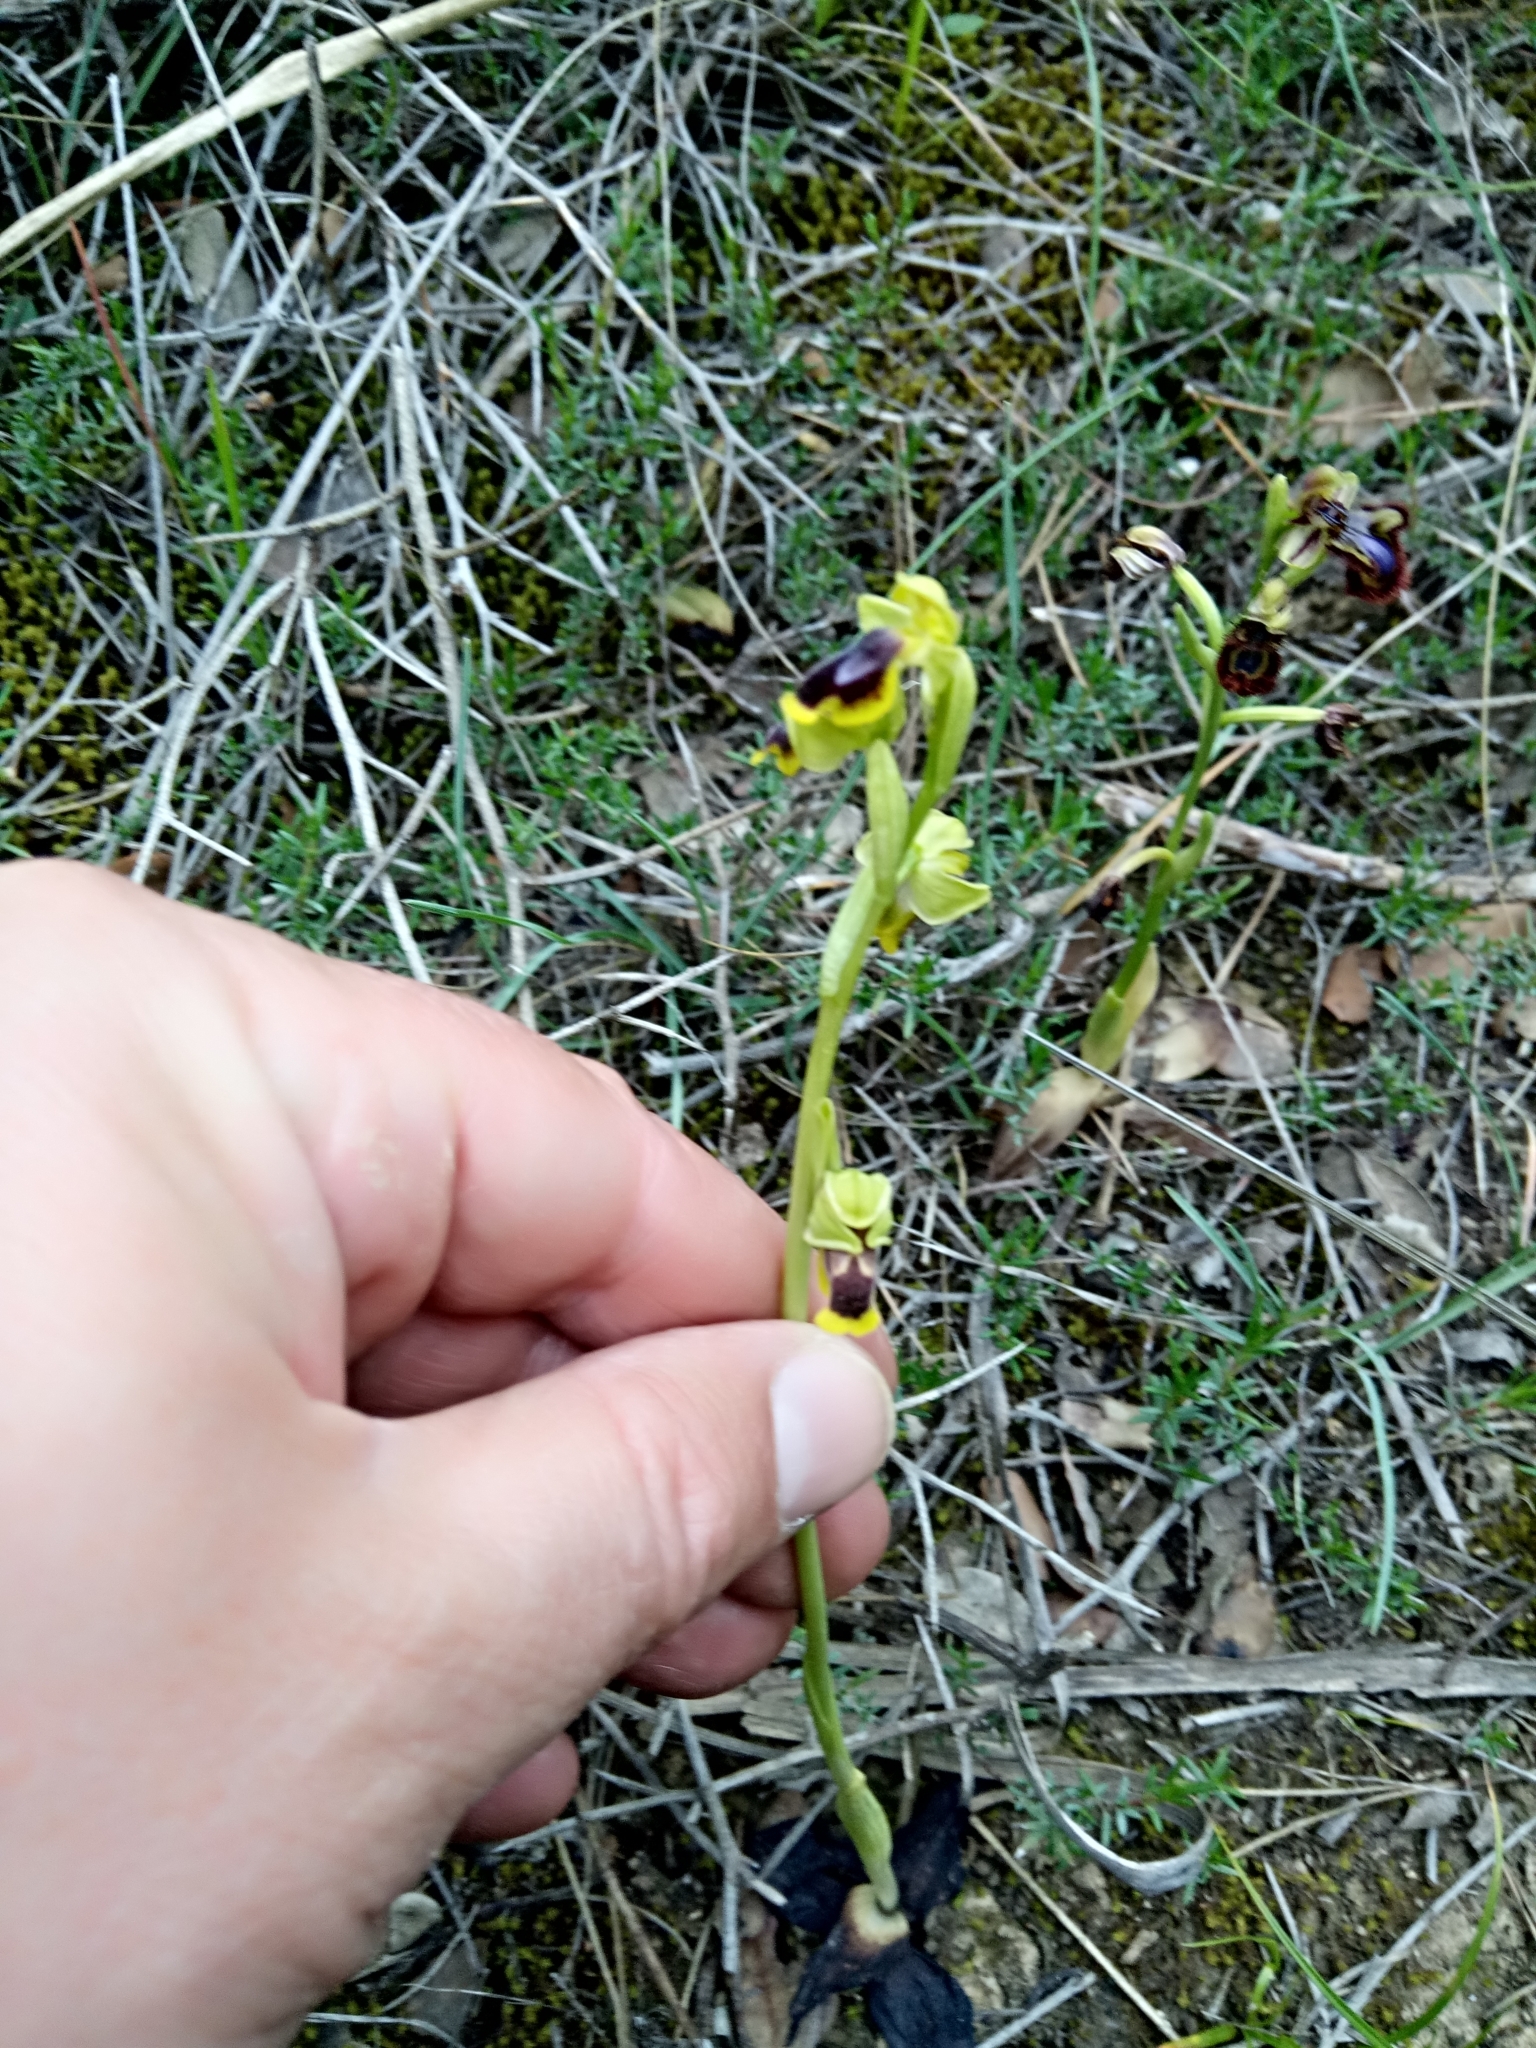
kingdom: Plantae
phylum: Tracheophyta
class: Liliopsida
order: Asparagales
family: Orchidaceae
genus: Ophrys
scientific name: Ophrys battandieri
